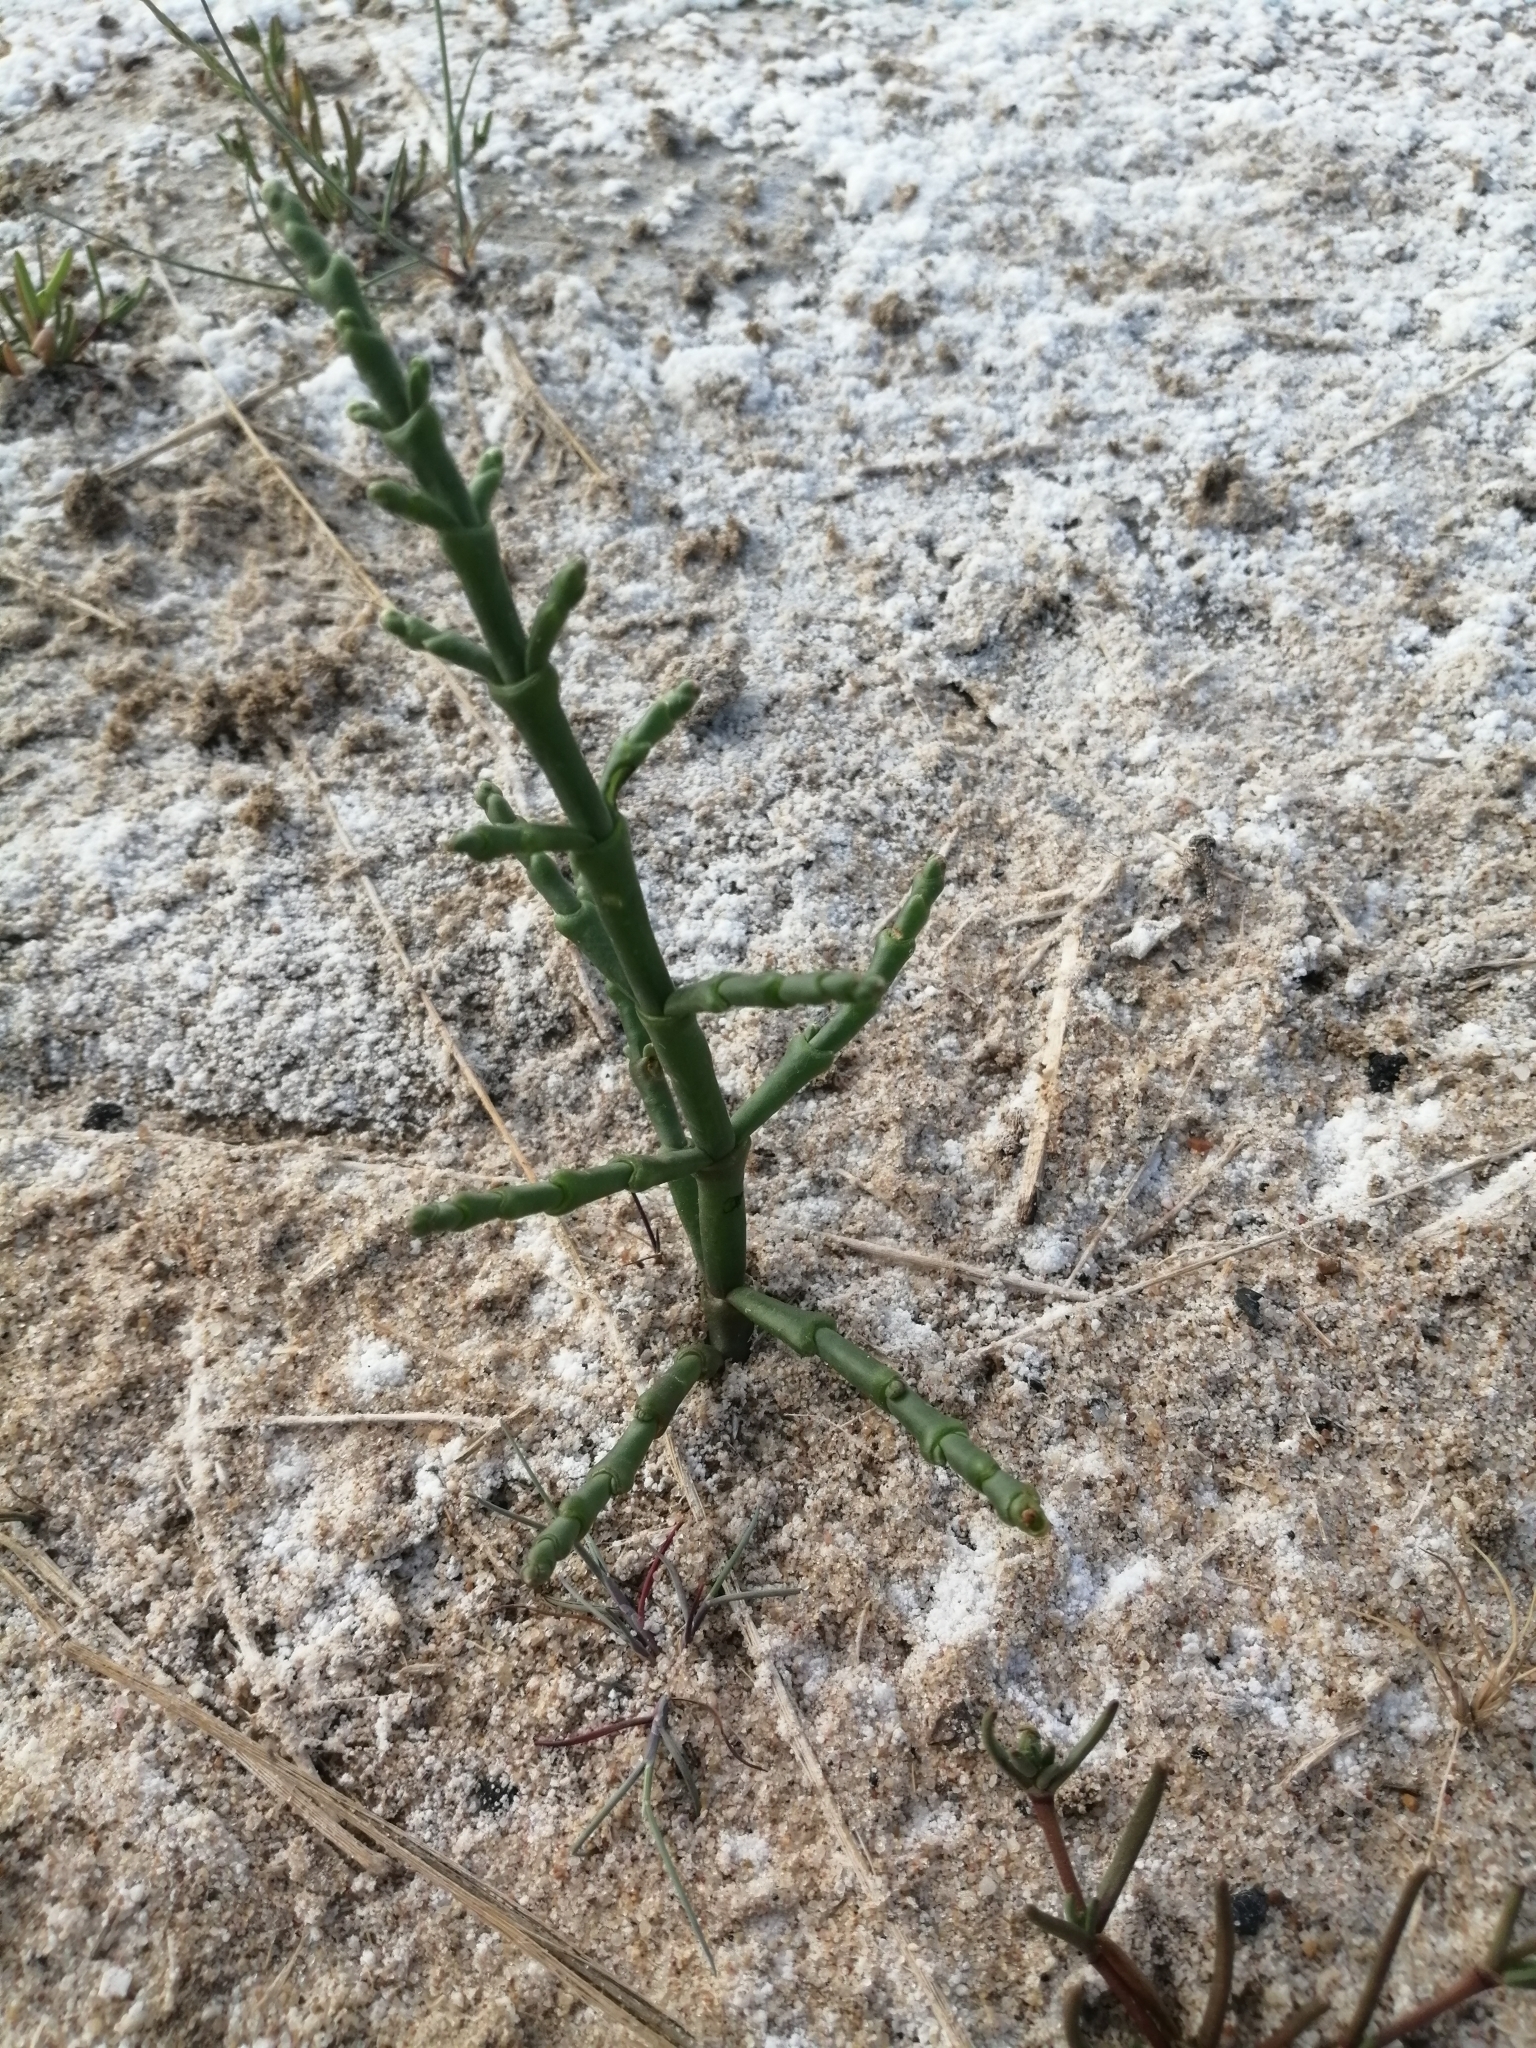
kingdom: Plantae
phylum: Tracheophyta
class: Magnoliopsida
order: Caryophyllales
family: Amaranthaceae
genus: Salicornia
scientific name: Salicornia perennans
